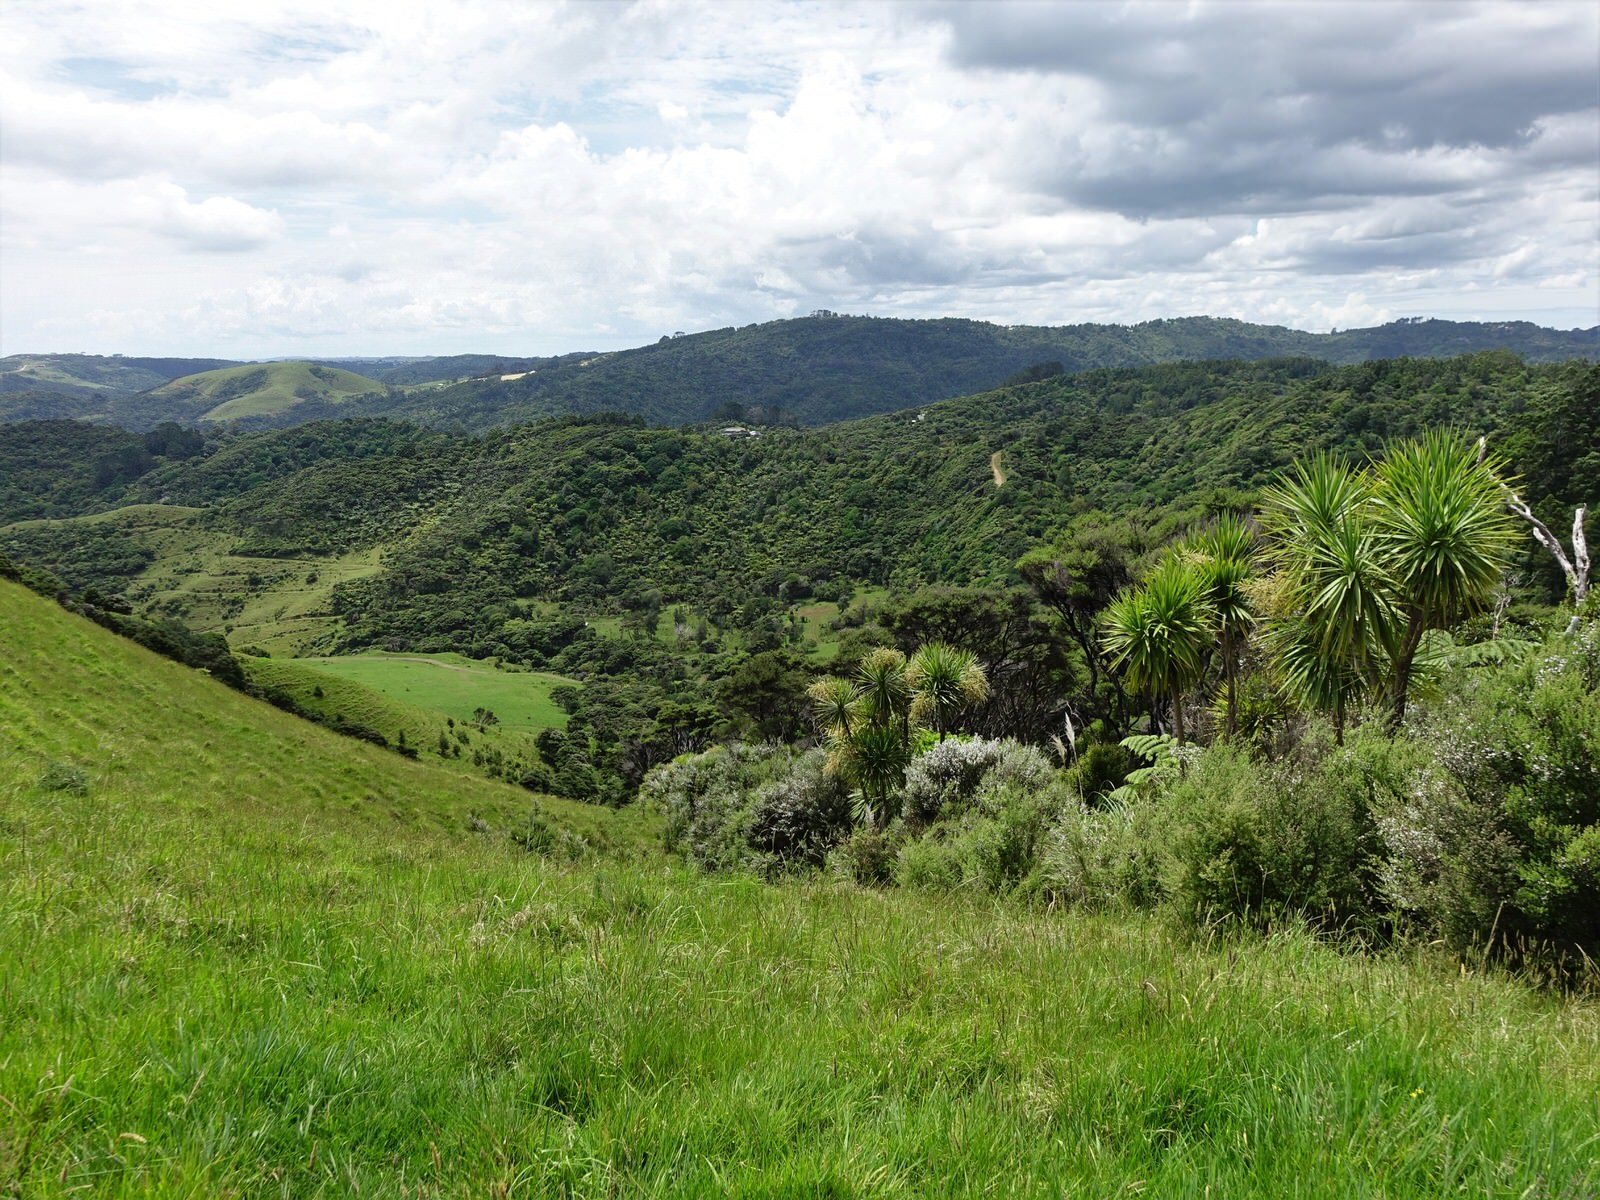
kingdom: Plantae
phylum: Tracheophyta
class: Liliopsida
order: Asparagales
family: Asparagaceae
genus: Cordyline
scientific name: Cordyline australis
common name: Cabbage-palm
